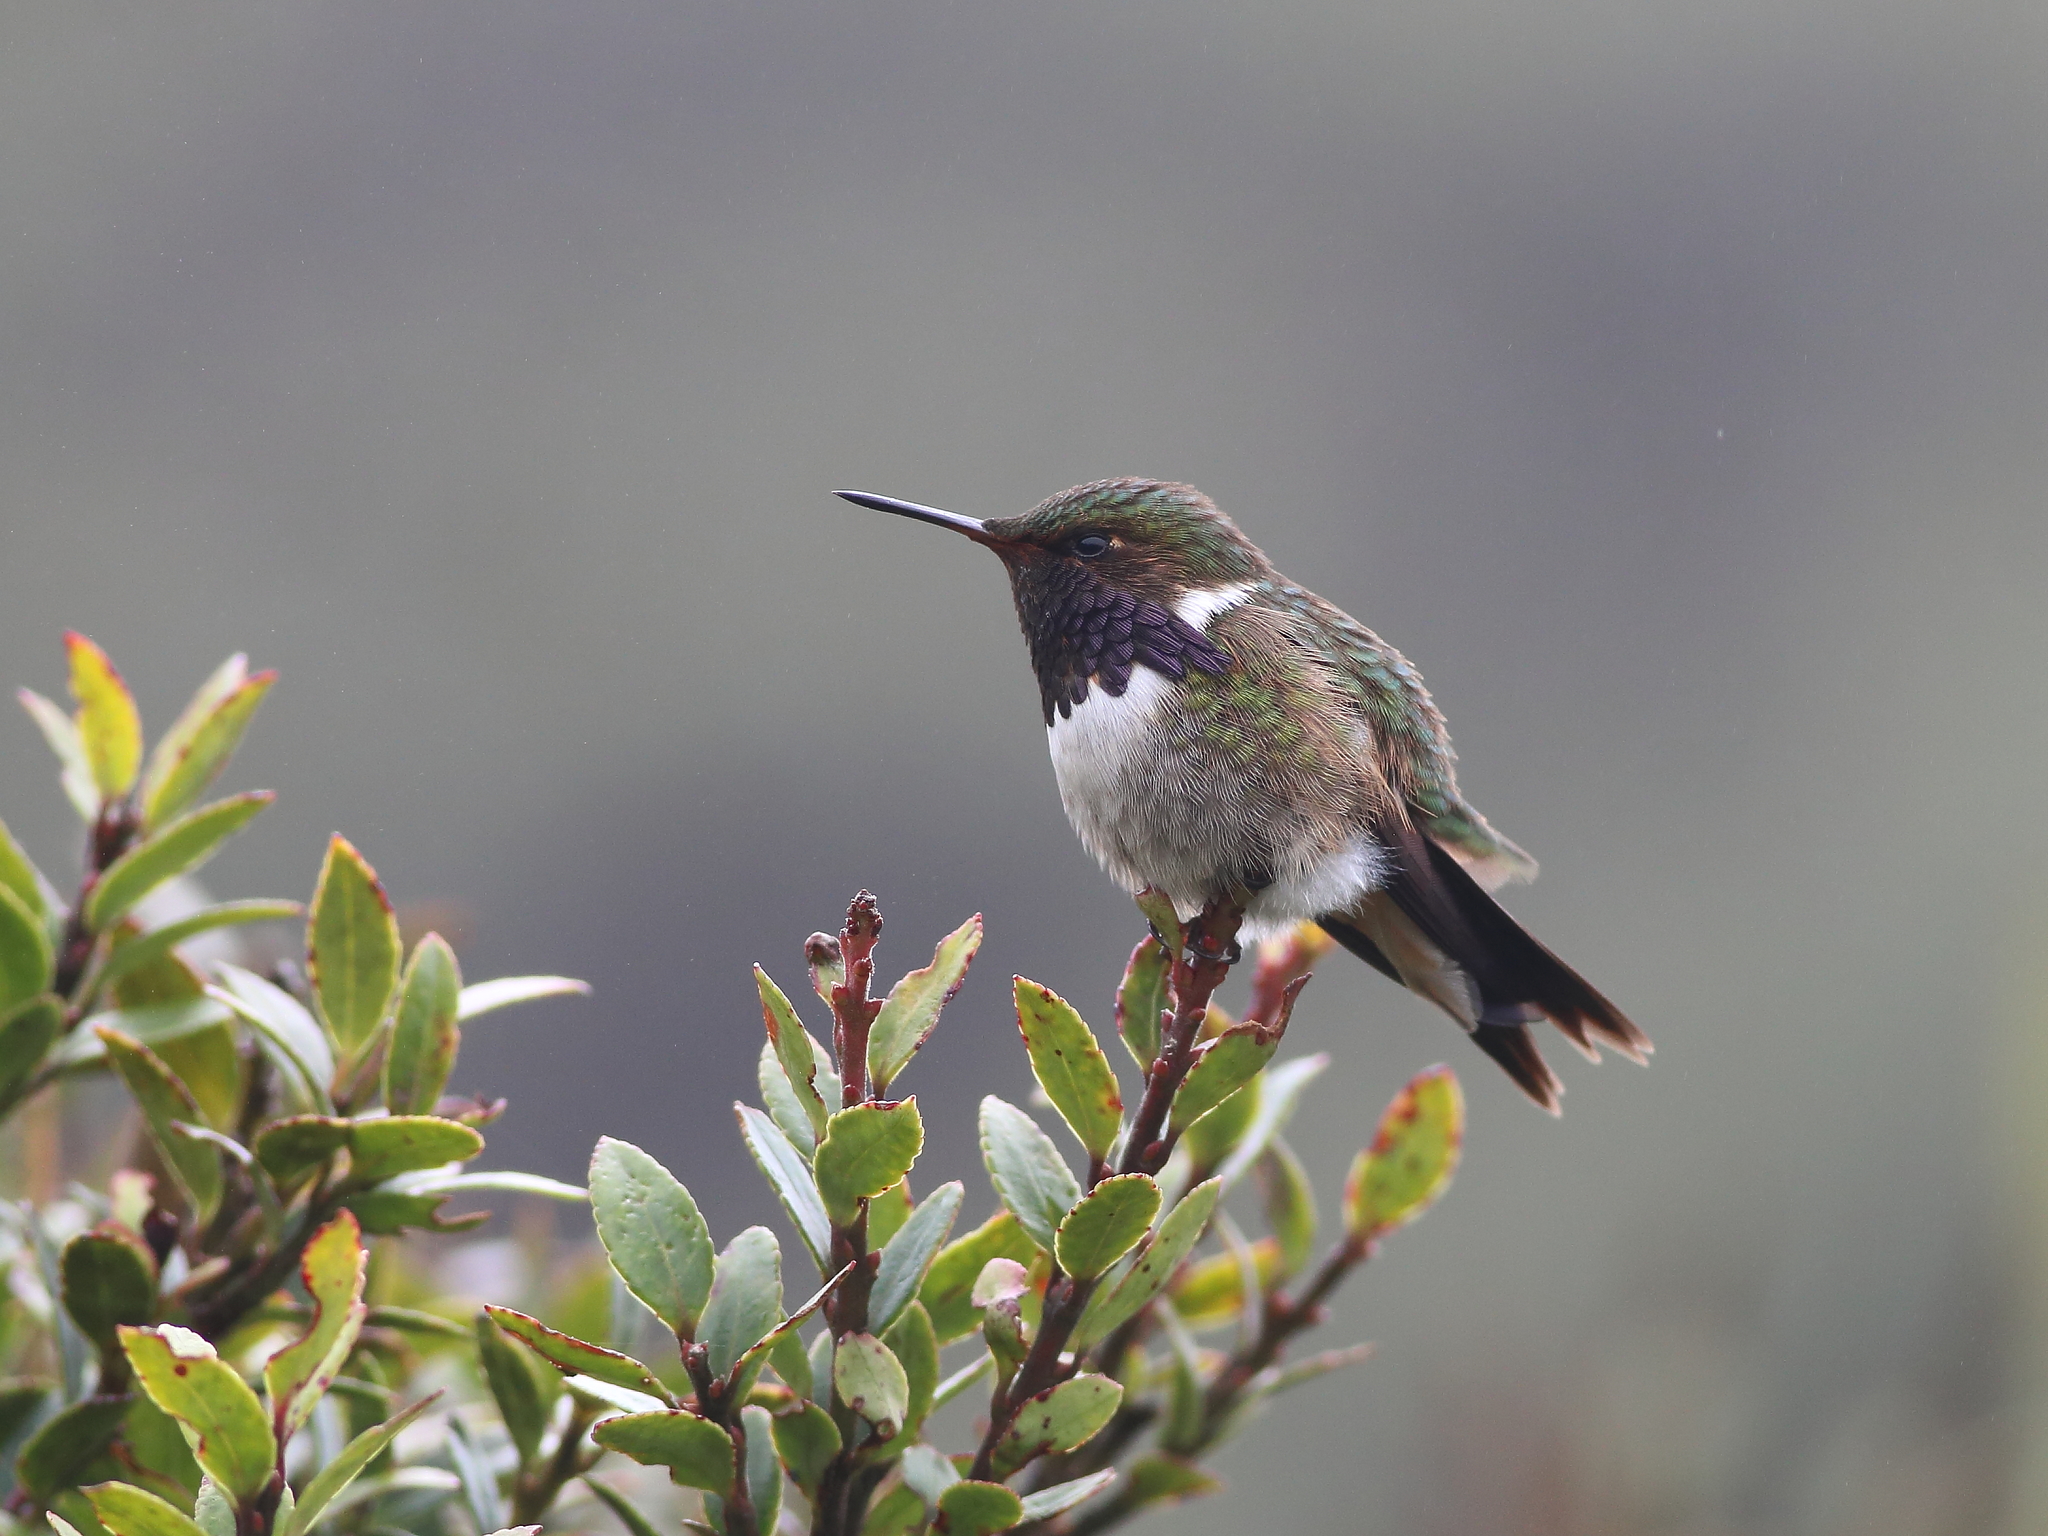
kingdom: Animalia
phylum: Chordata
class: Aves
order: Apodiformes
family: Trochilidae
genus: Selasphorus
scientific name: Selasphorus flammula
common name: Volcano hummingbird
